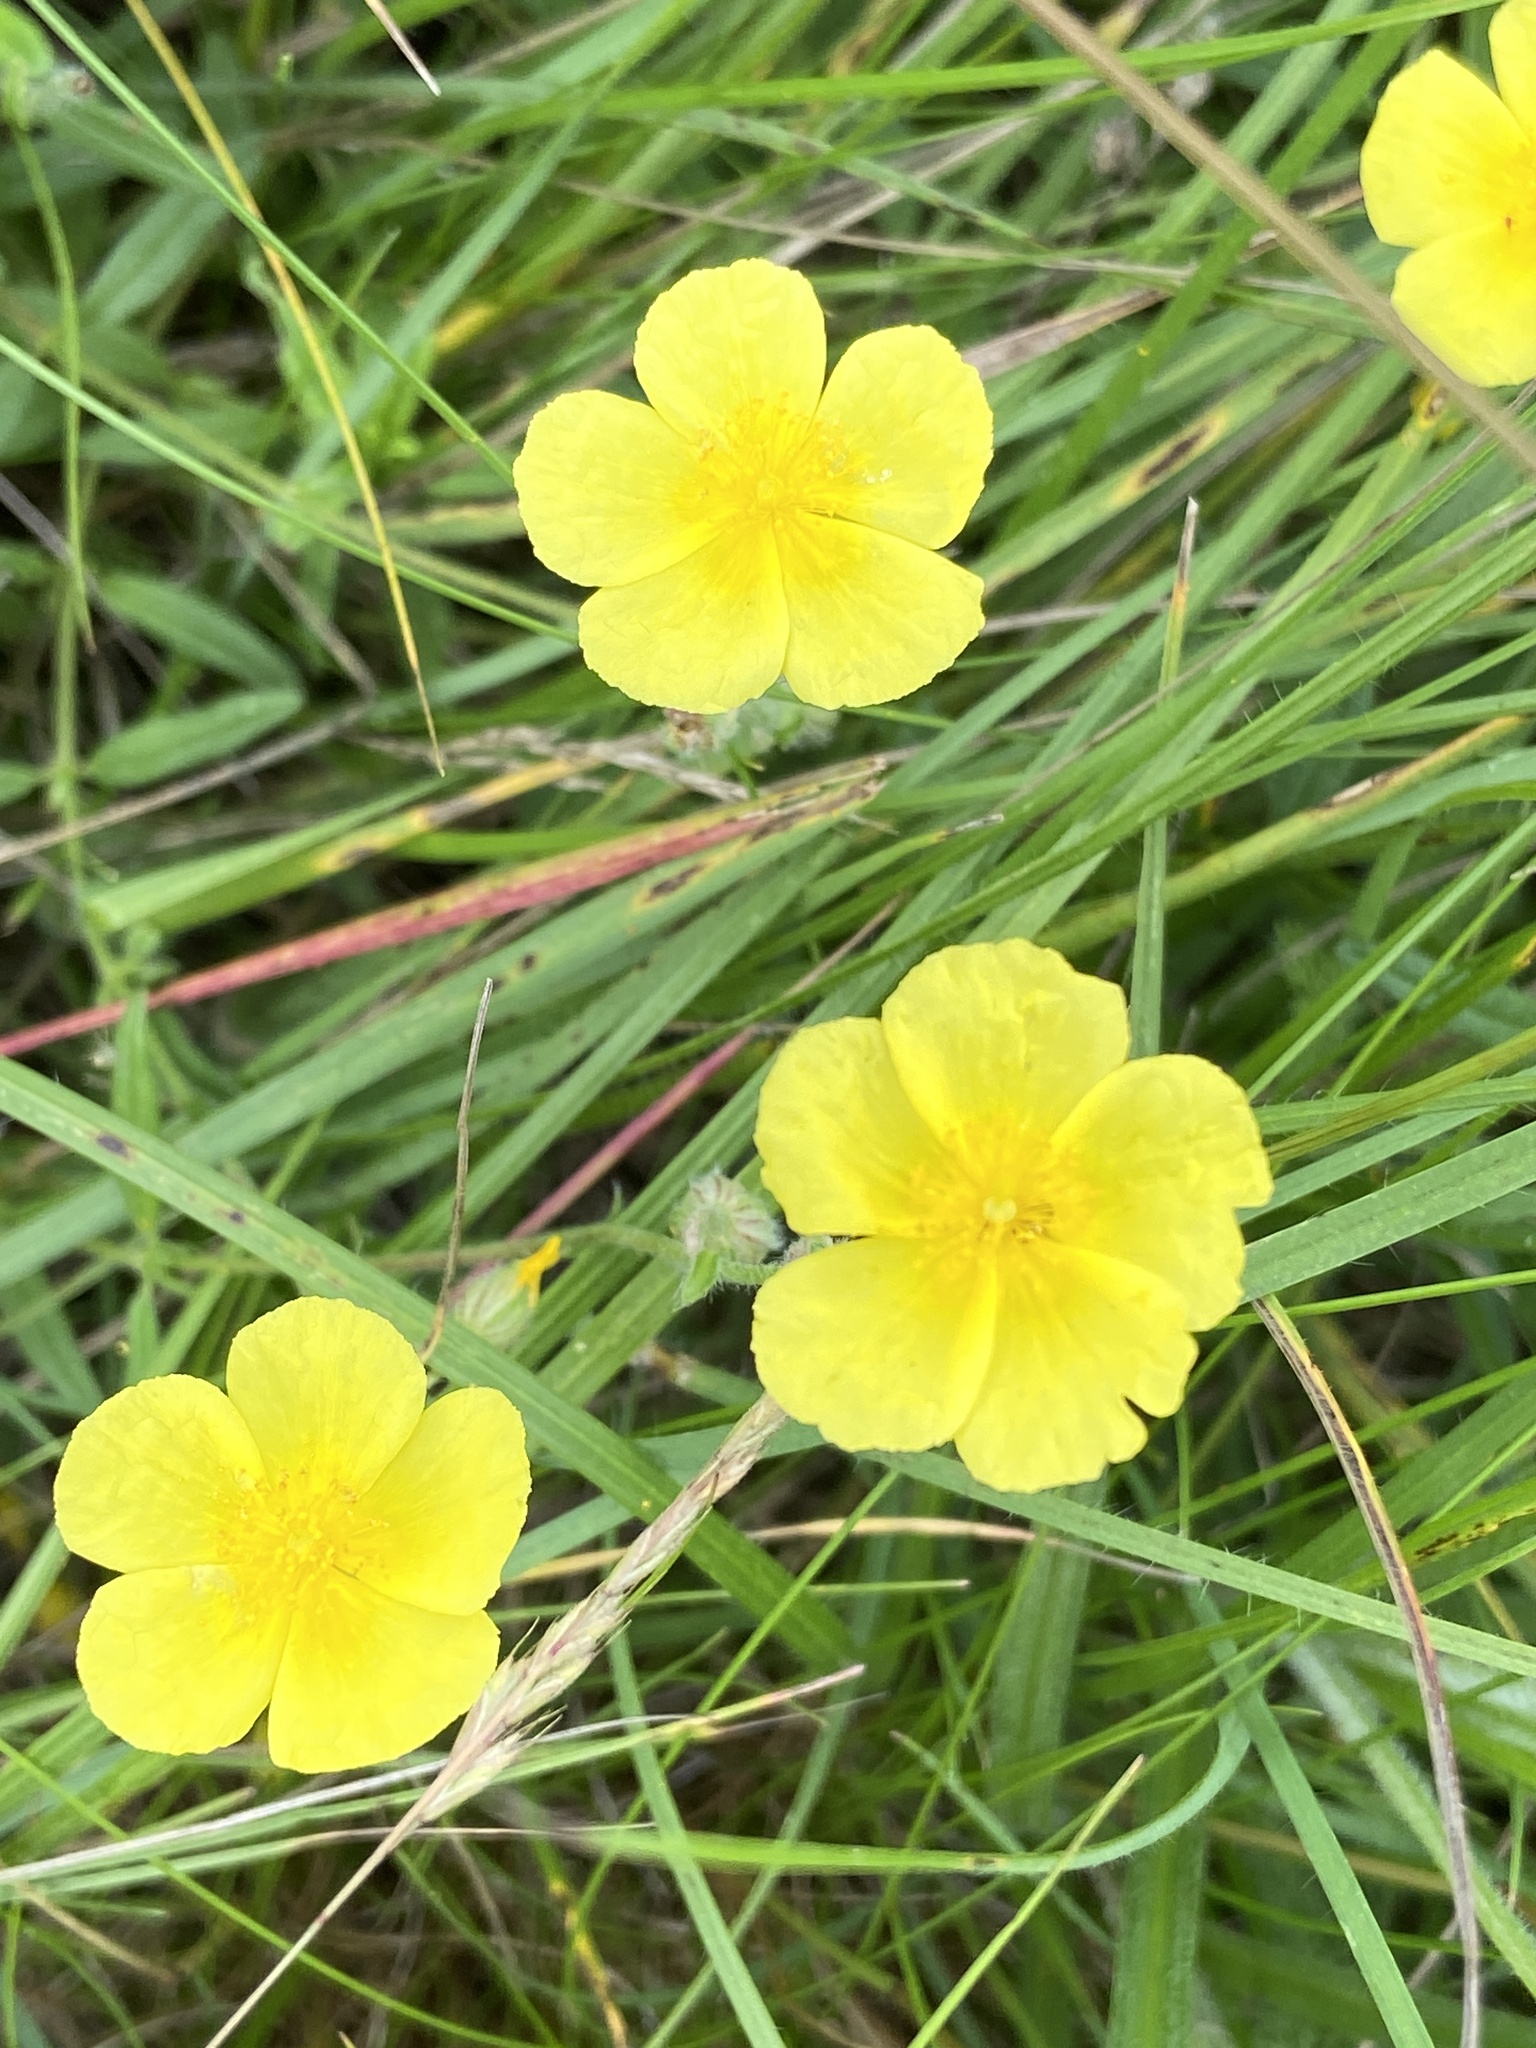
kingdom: Plantae
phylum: Tracheophyta
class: Magnoliopsida
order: Malvales
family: Cistaceae
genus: Helianthemum
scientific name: Helianthemum nummularium
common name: Common rock-rose
